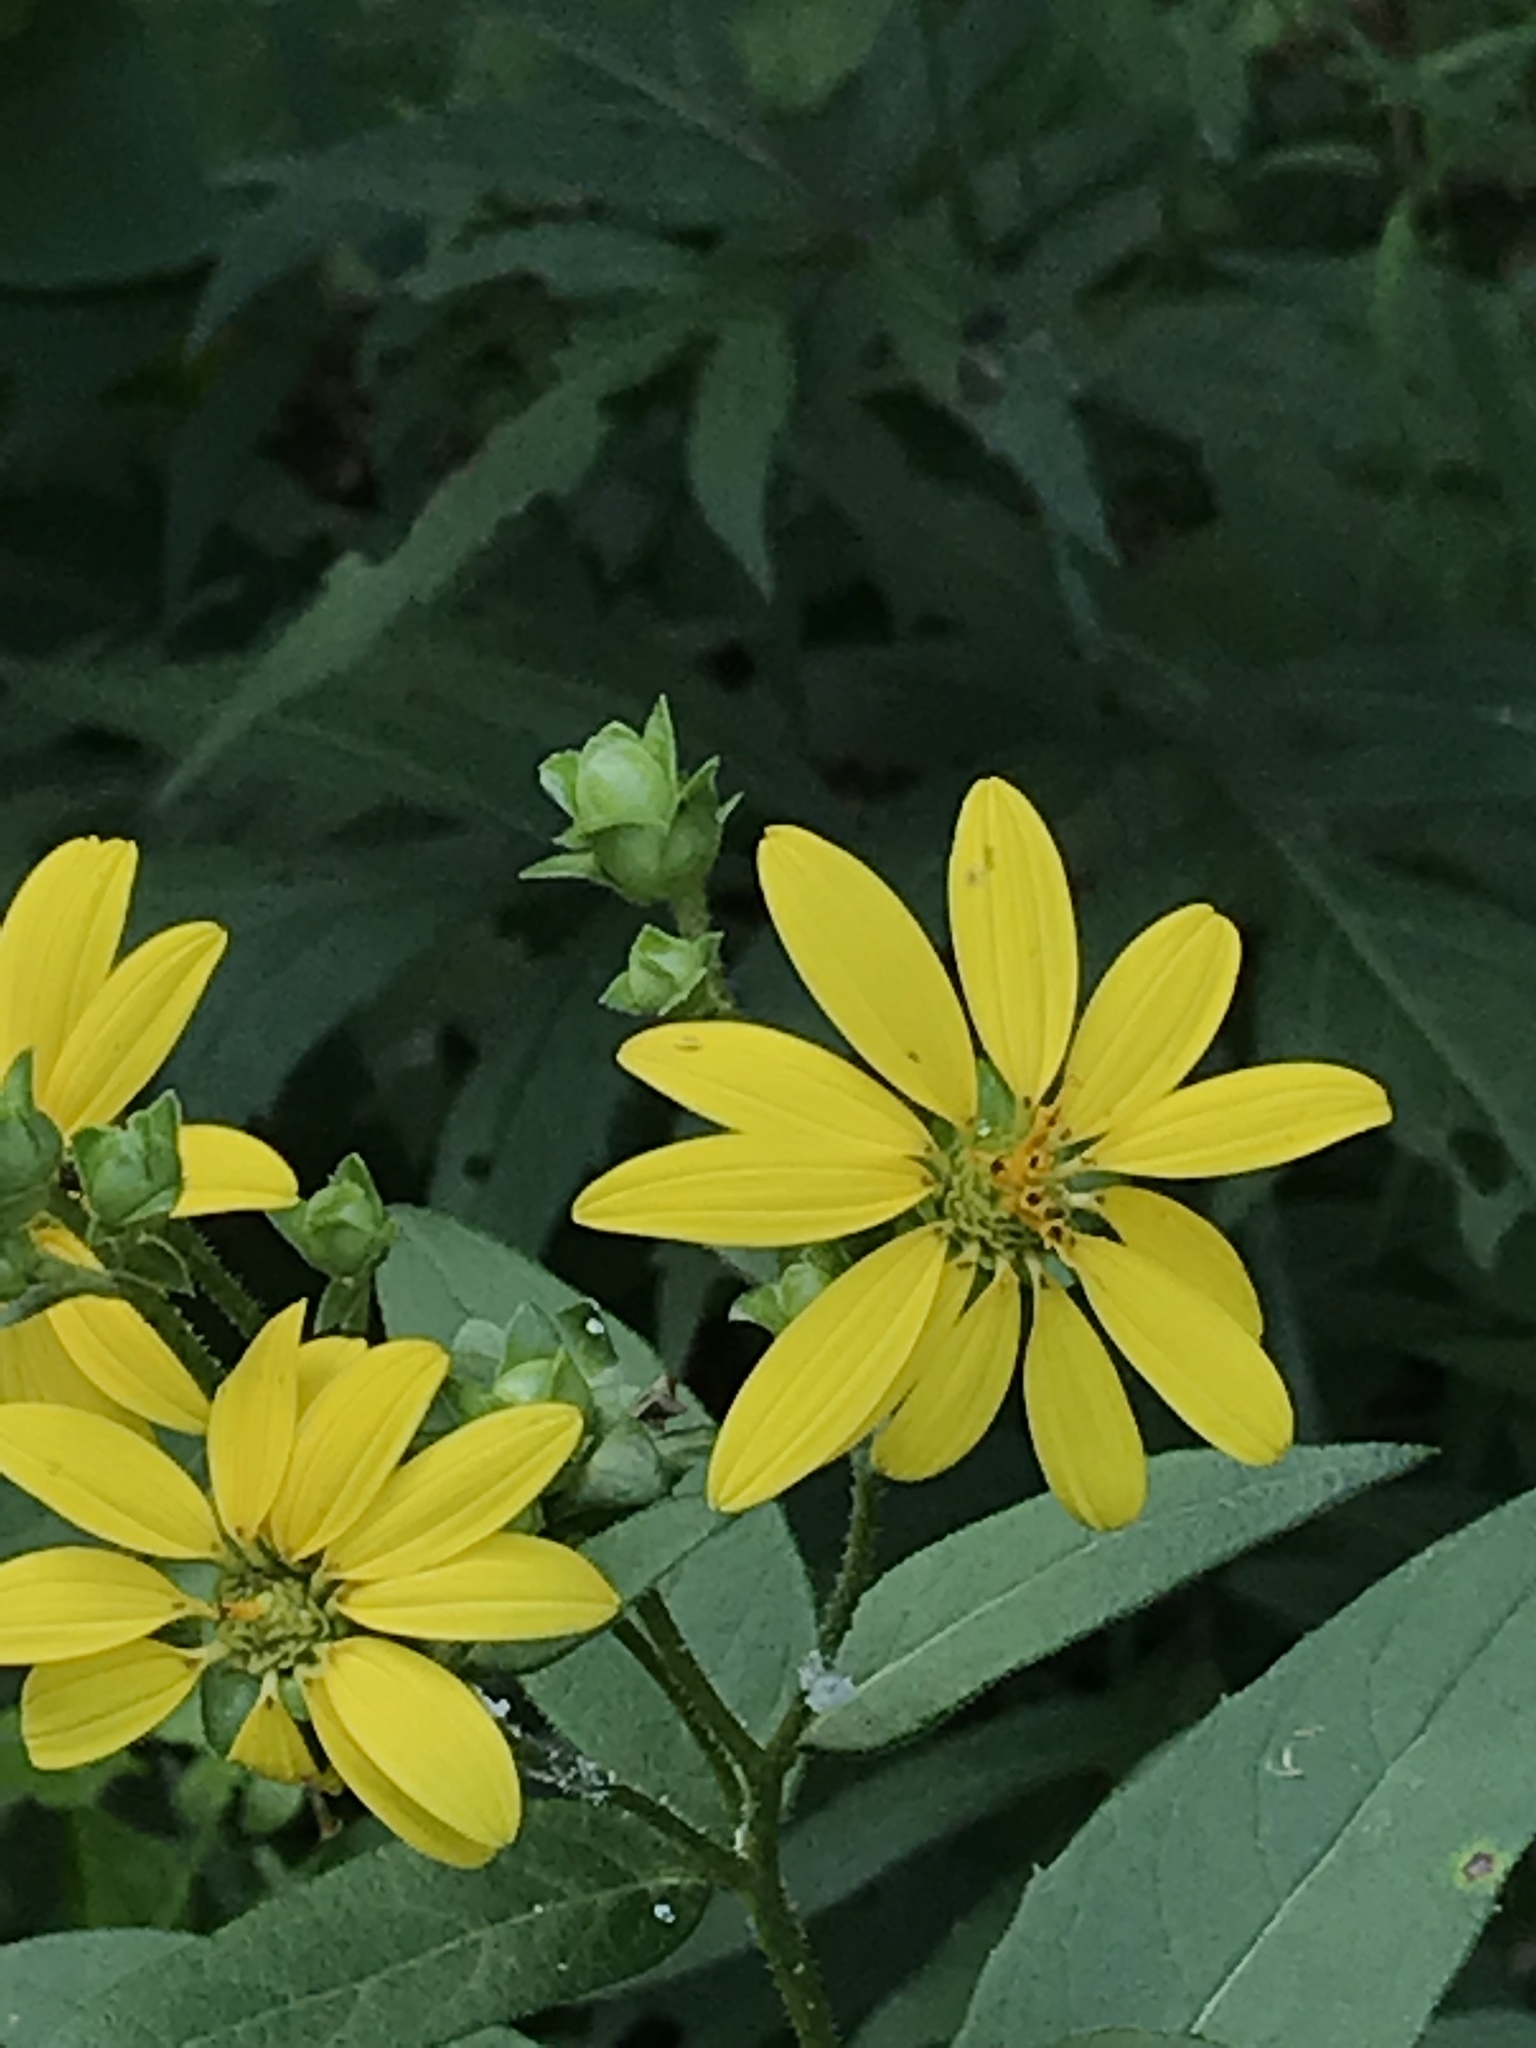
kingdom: Plantae
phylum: Tracheophyta
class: Magnoliopsida
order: Asterales
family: Asteraceae
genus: Silphium
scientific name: Silphium asteriscus
